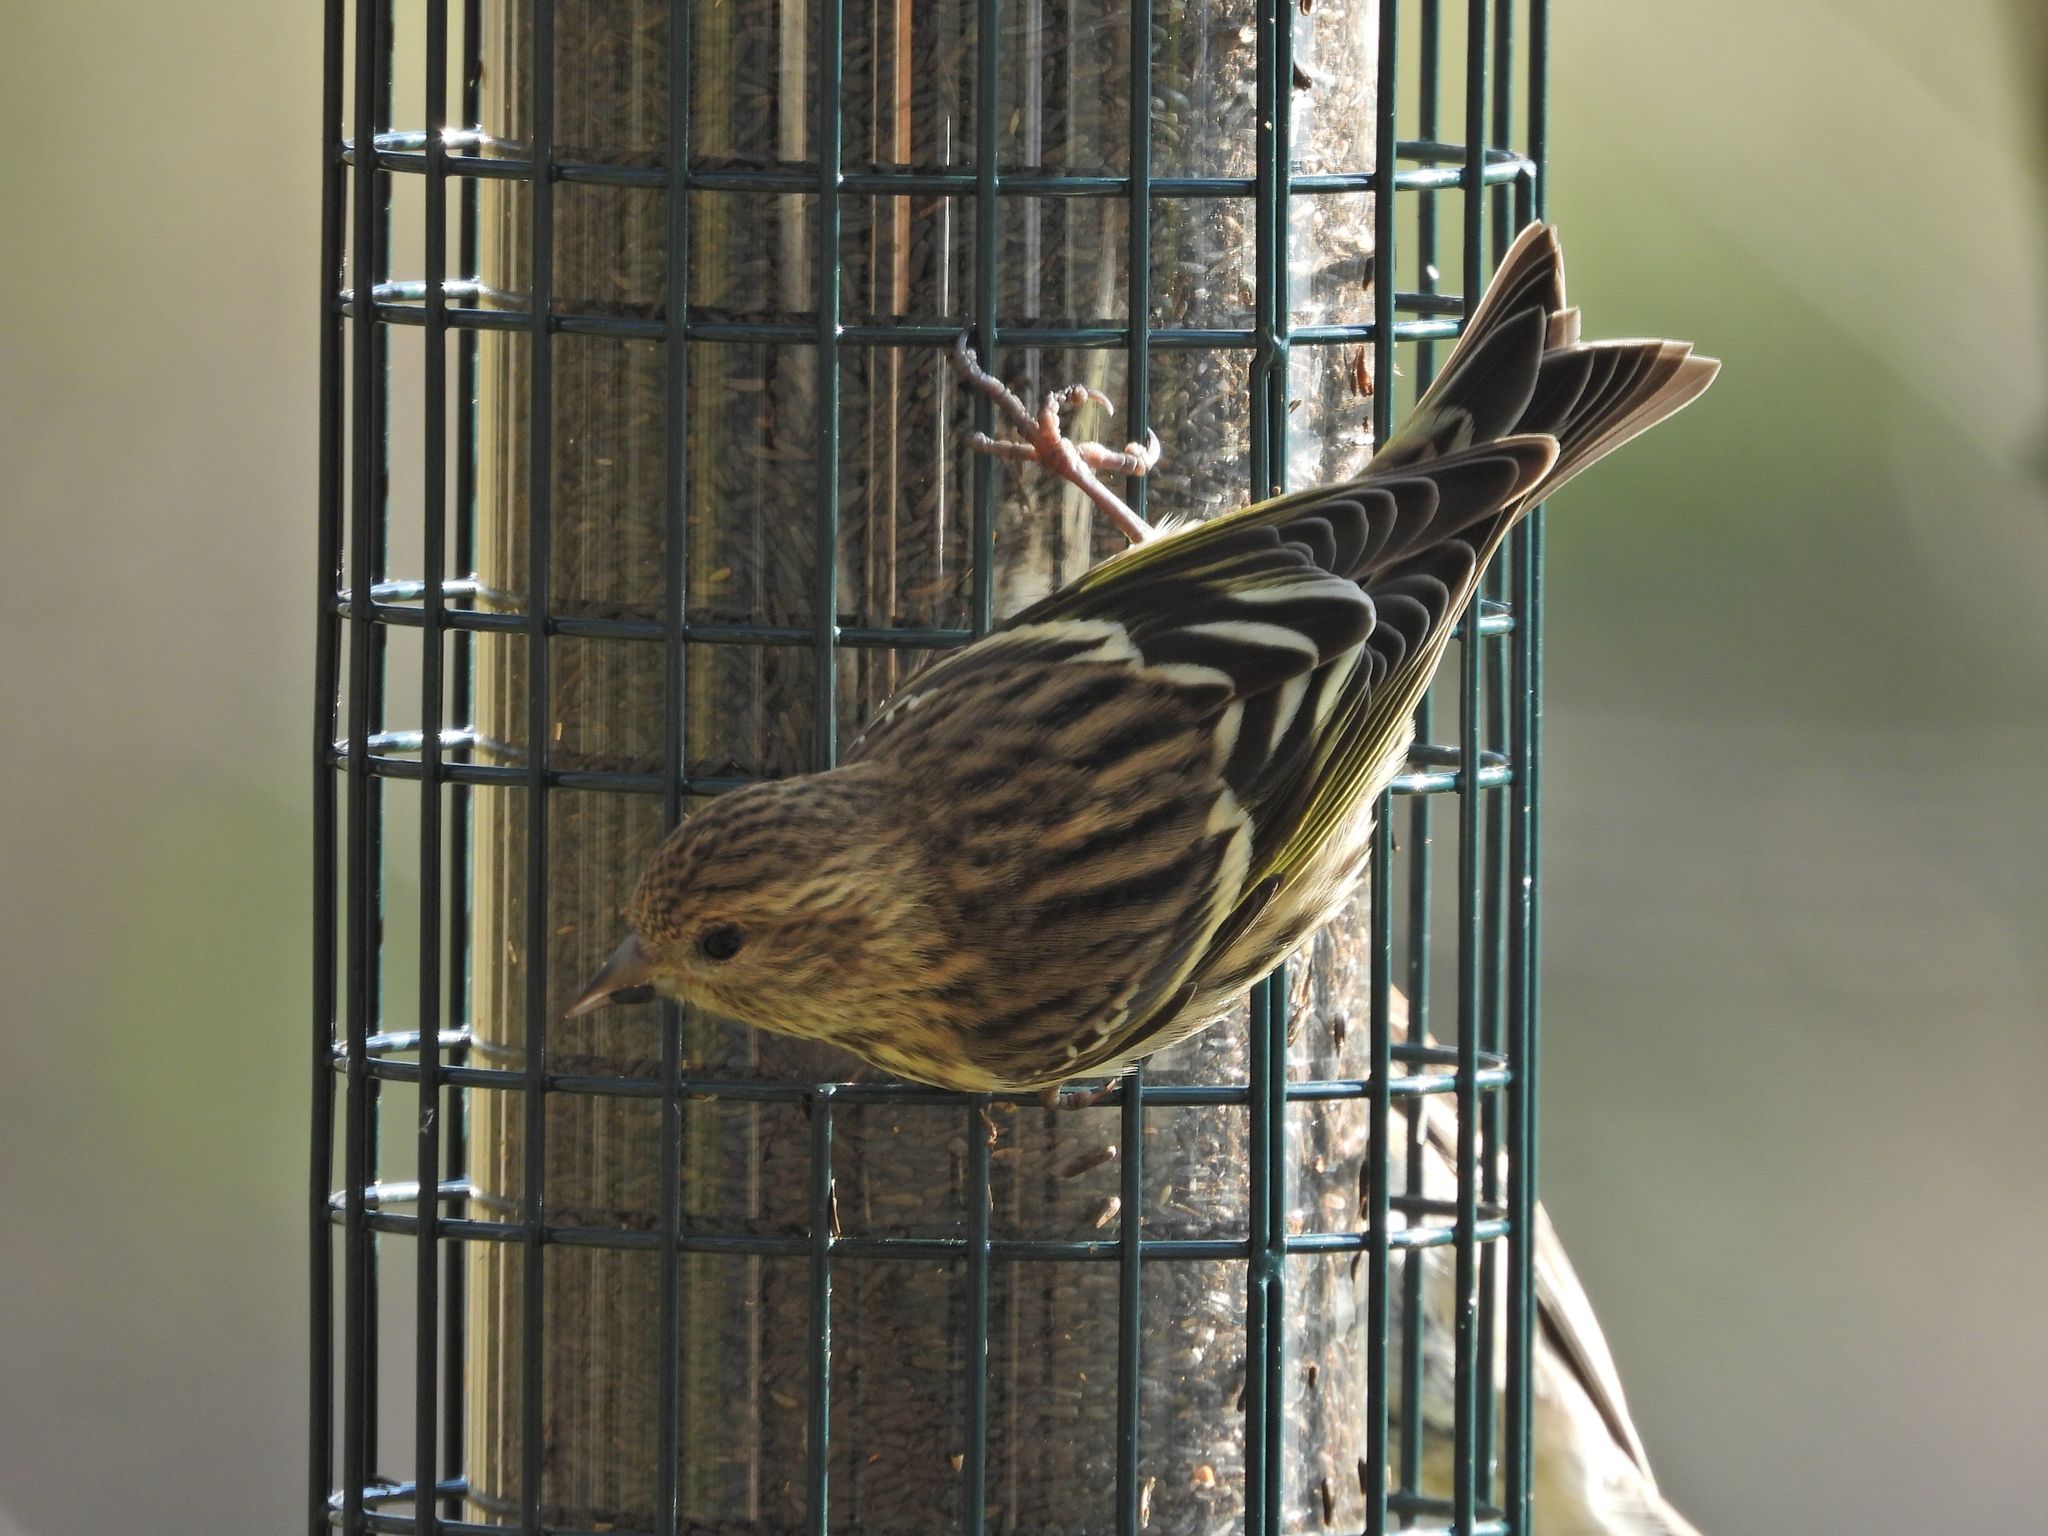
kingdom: Animalia
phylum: Chordata
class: Aves
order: Passeriformes
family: Fringillidae
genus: Spinus
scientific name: Spinus pinus
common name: Pine siskin
